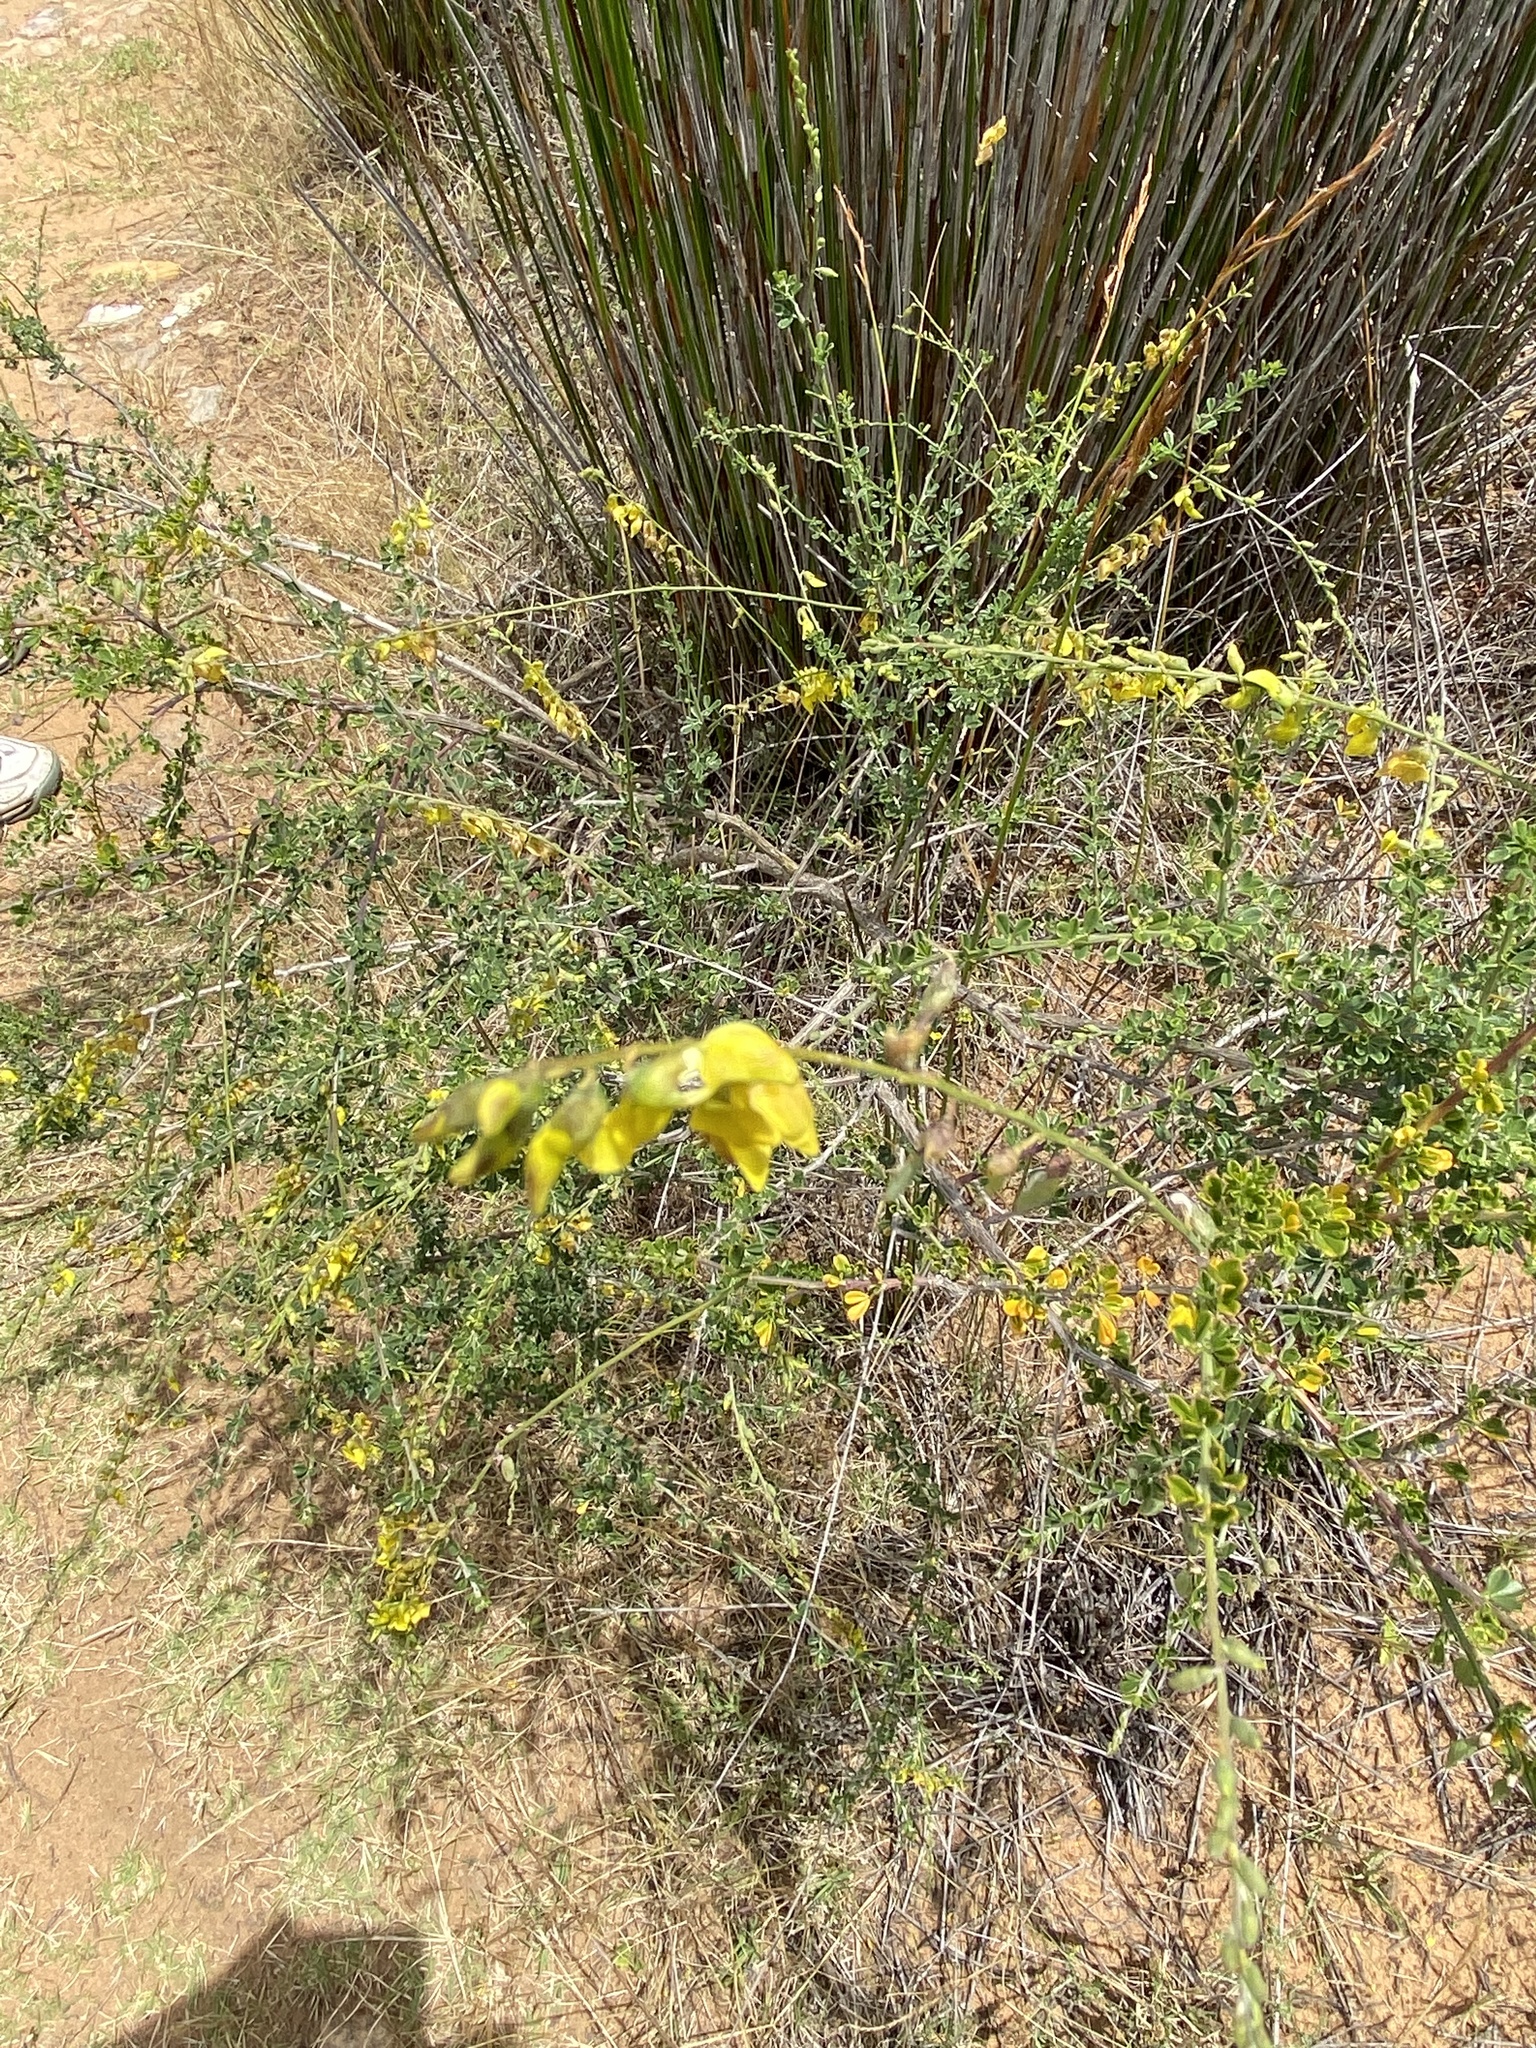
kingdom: Plantae
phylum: Tracheophyta
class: Magnoliopsida
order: Fabales
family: Fabaceae
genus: Wiborgia
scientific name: Wiborgia obcordata
